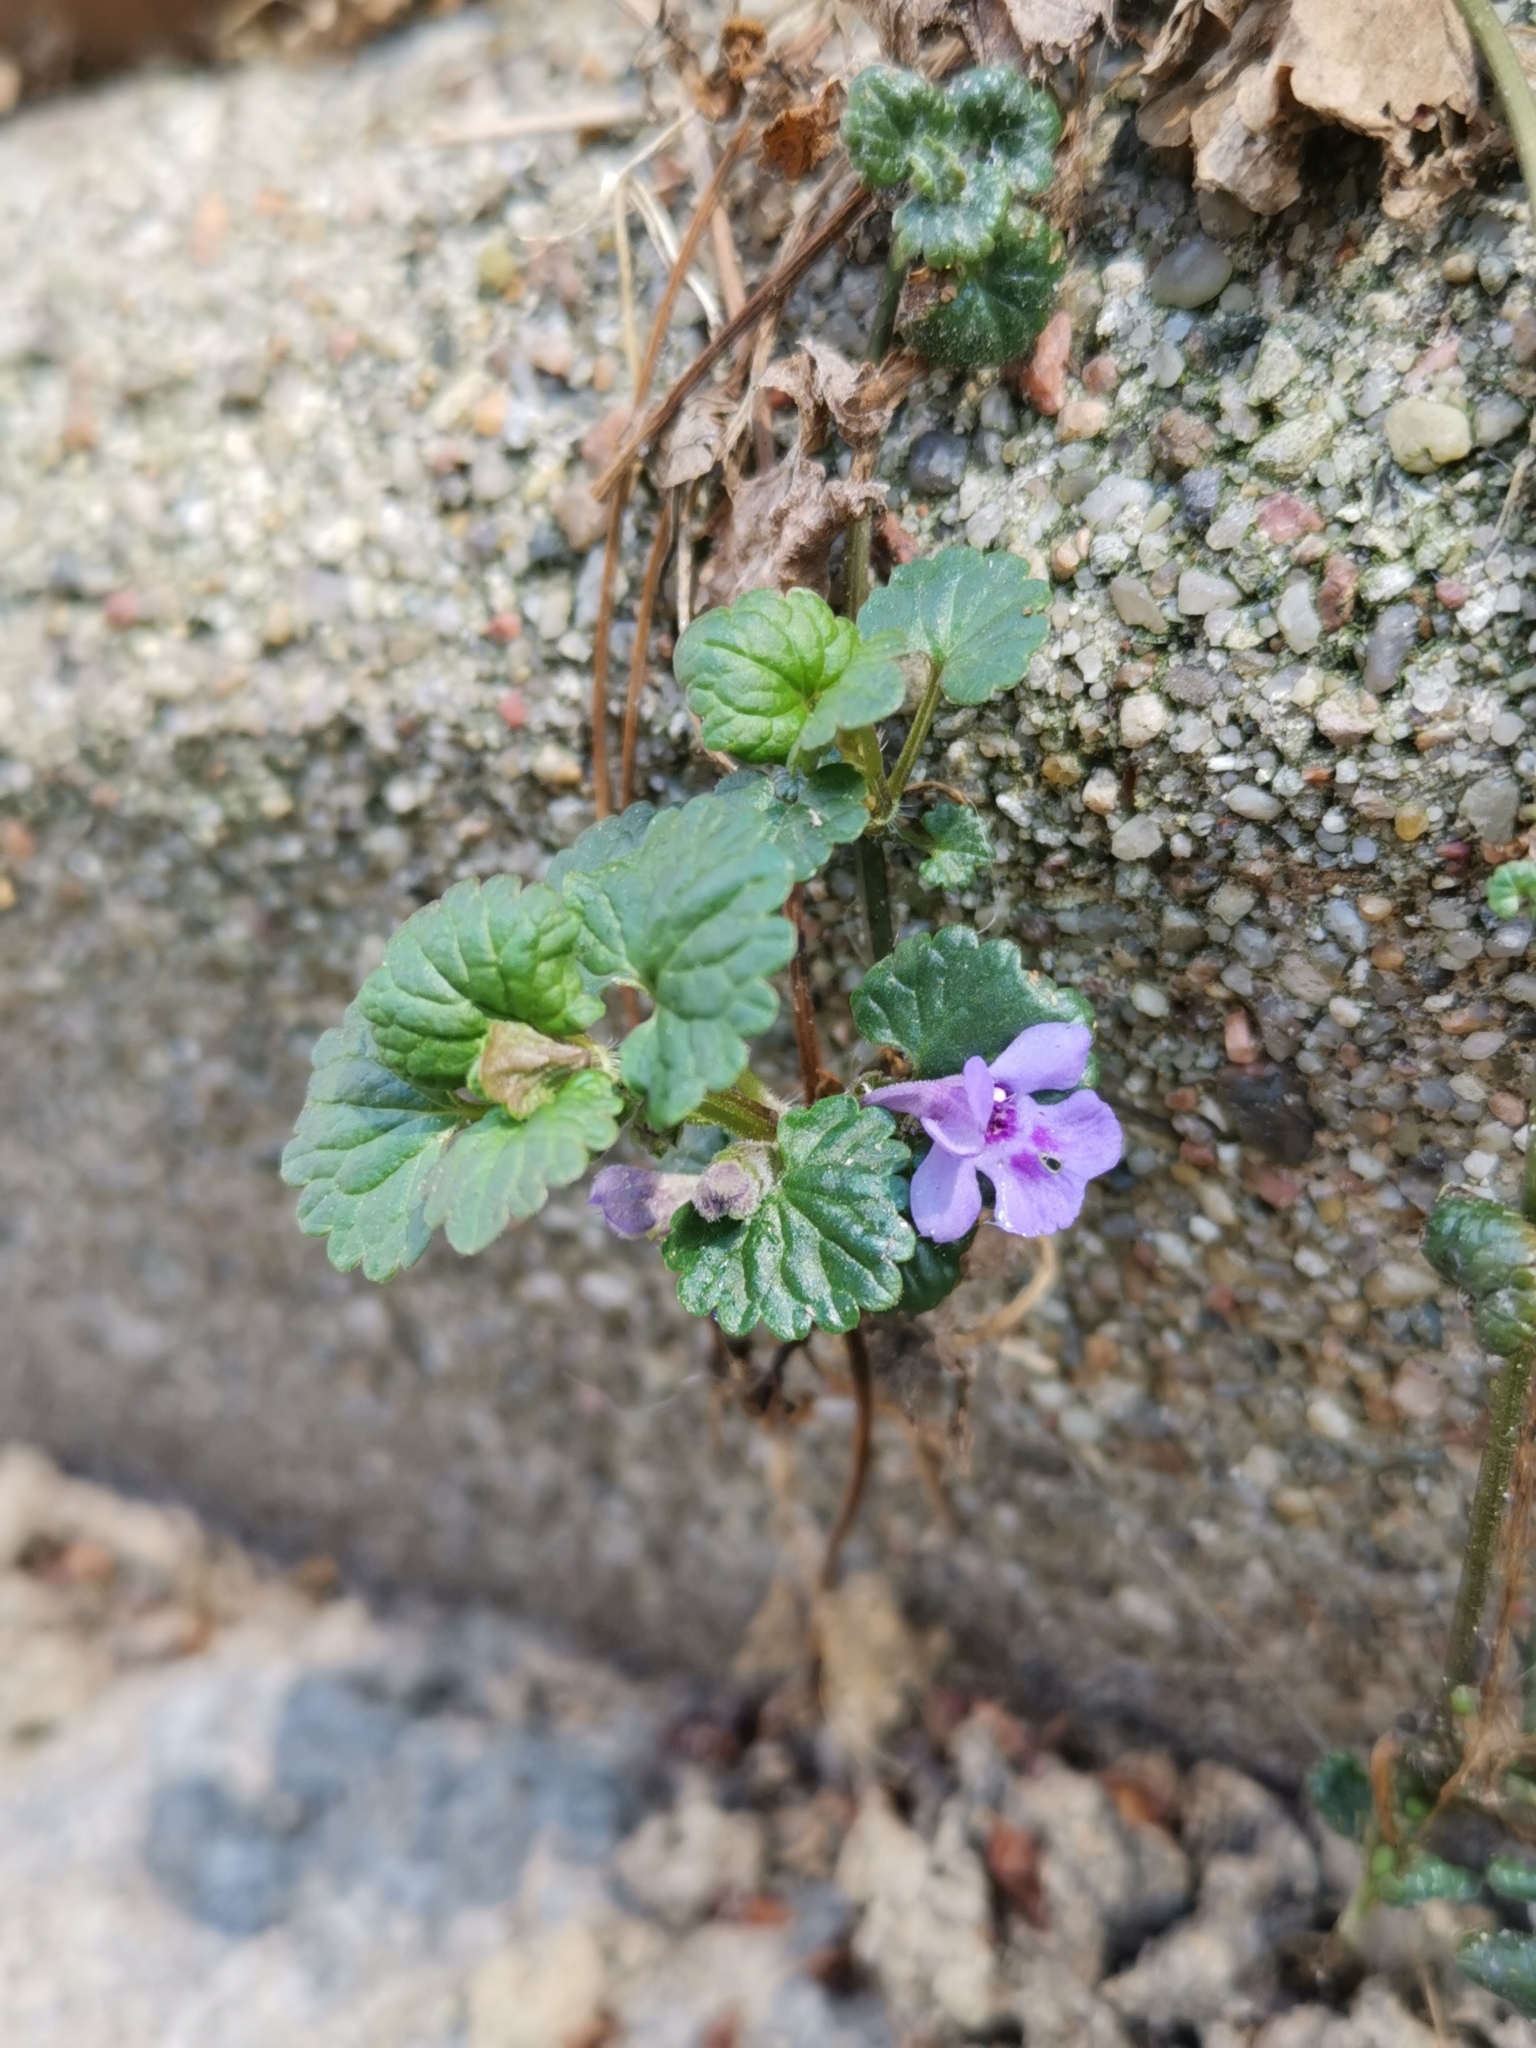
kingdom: Plantae
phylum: Tracheophyta
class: Magnoliopsida
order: Lamiales
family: Lamiaceae
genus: Glechoma
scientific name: Glechoma hederacea
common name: Ground ivy
